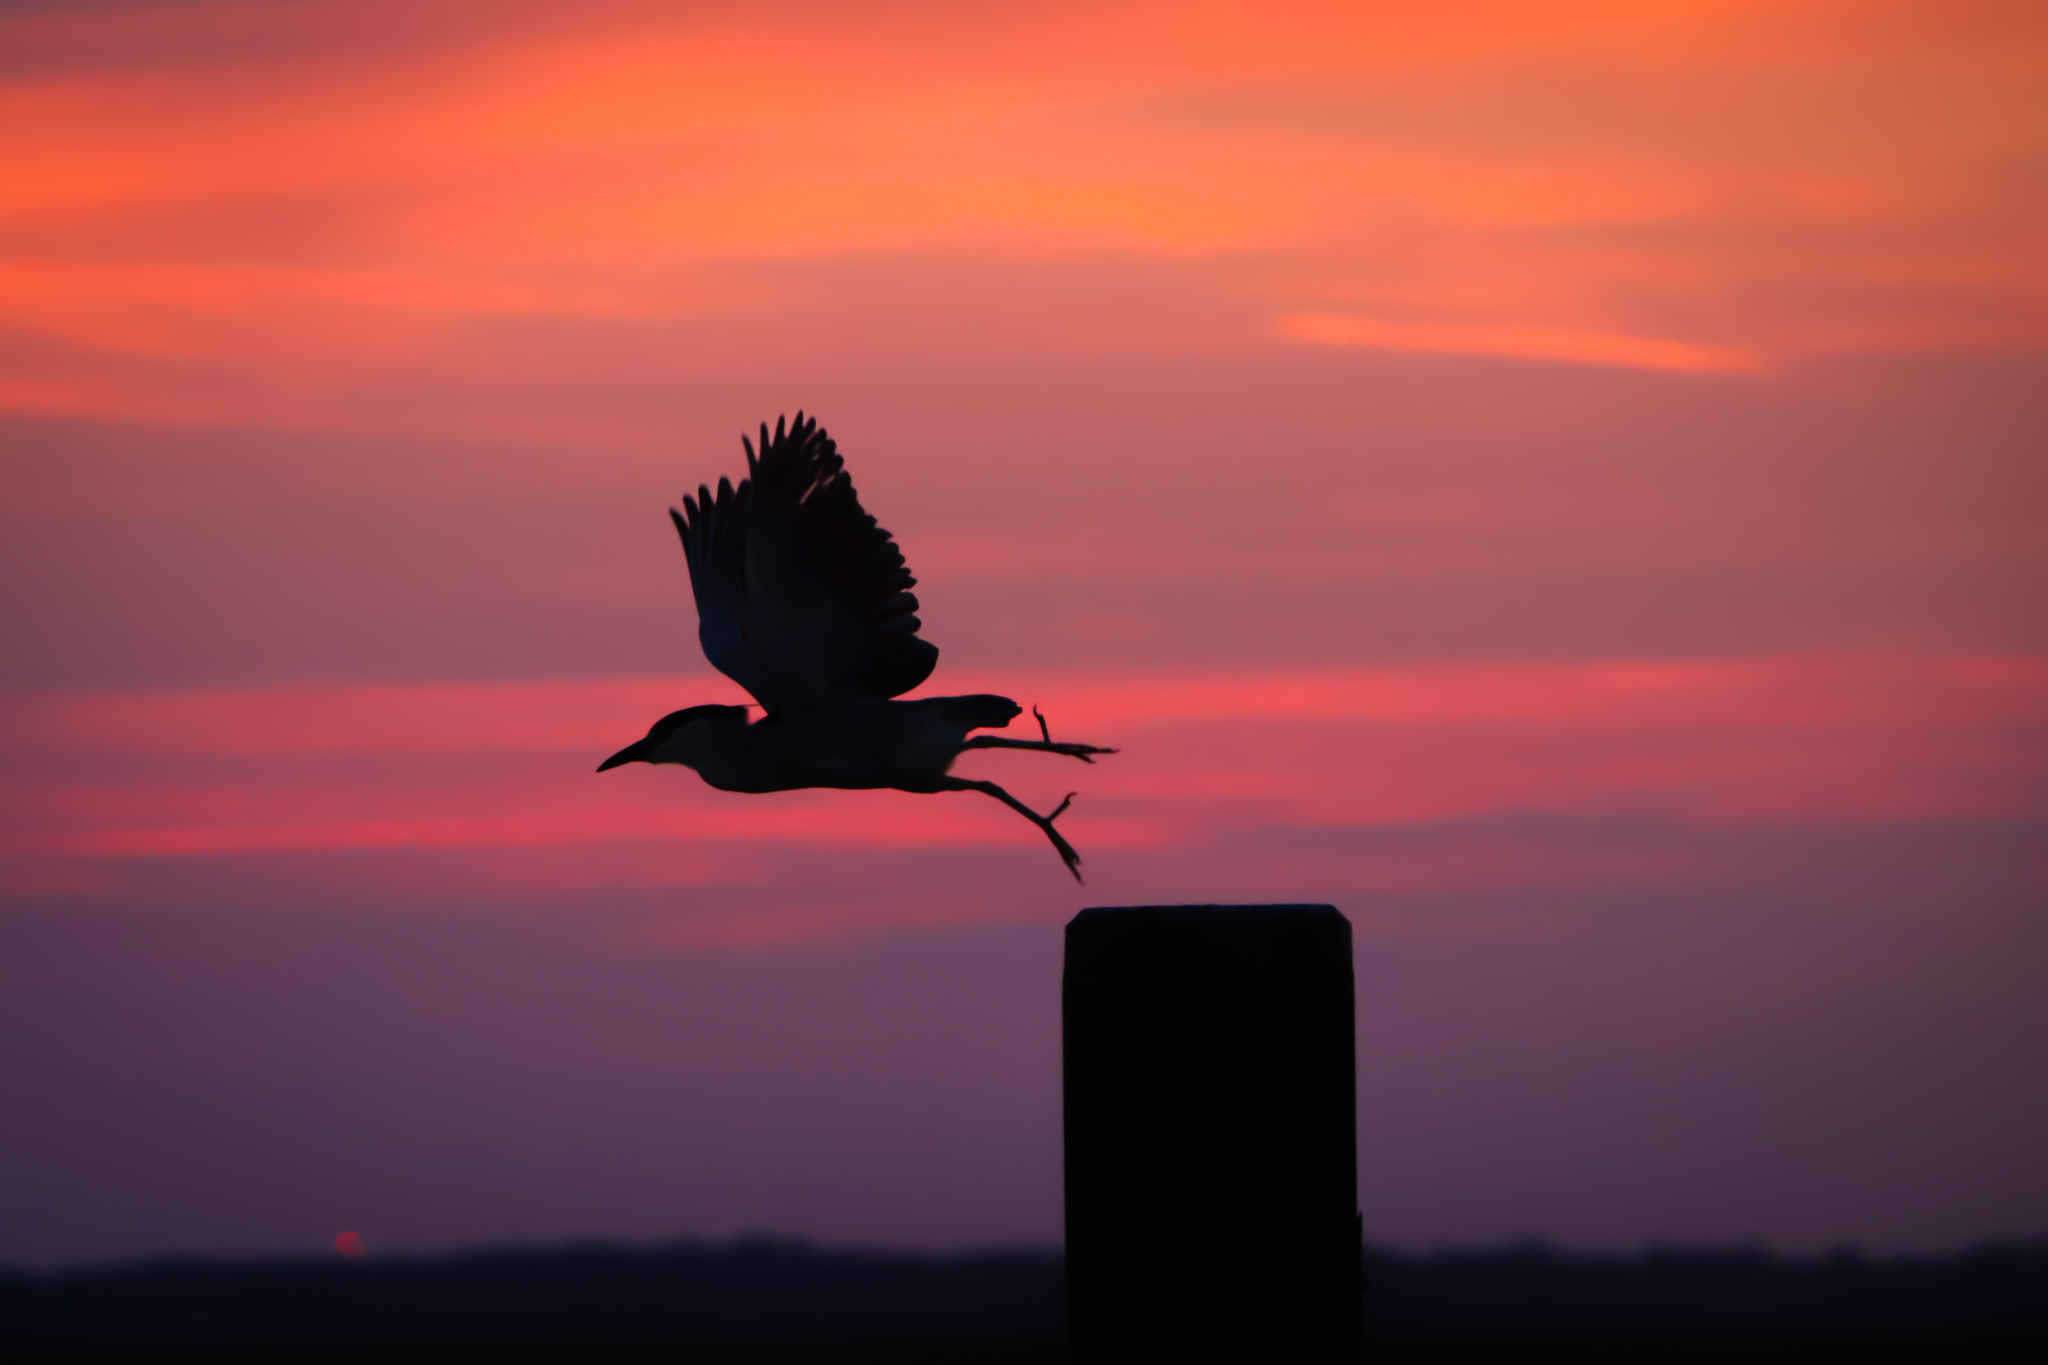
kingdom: Animalia
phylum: Chordata
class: Aves
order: Pelecaniformes
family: Ardeidae
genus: Nycticorax
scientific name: Nycticorax nycticorax
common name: Black-crowned night heron
